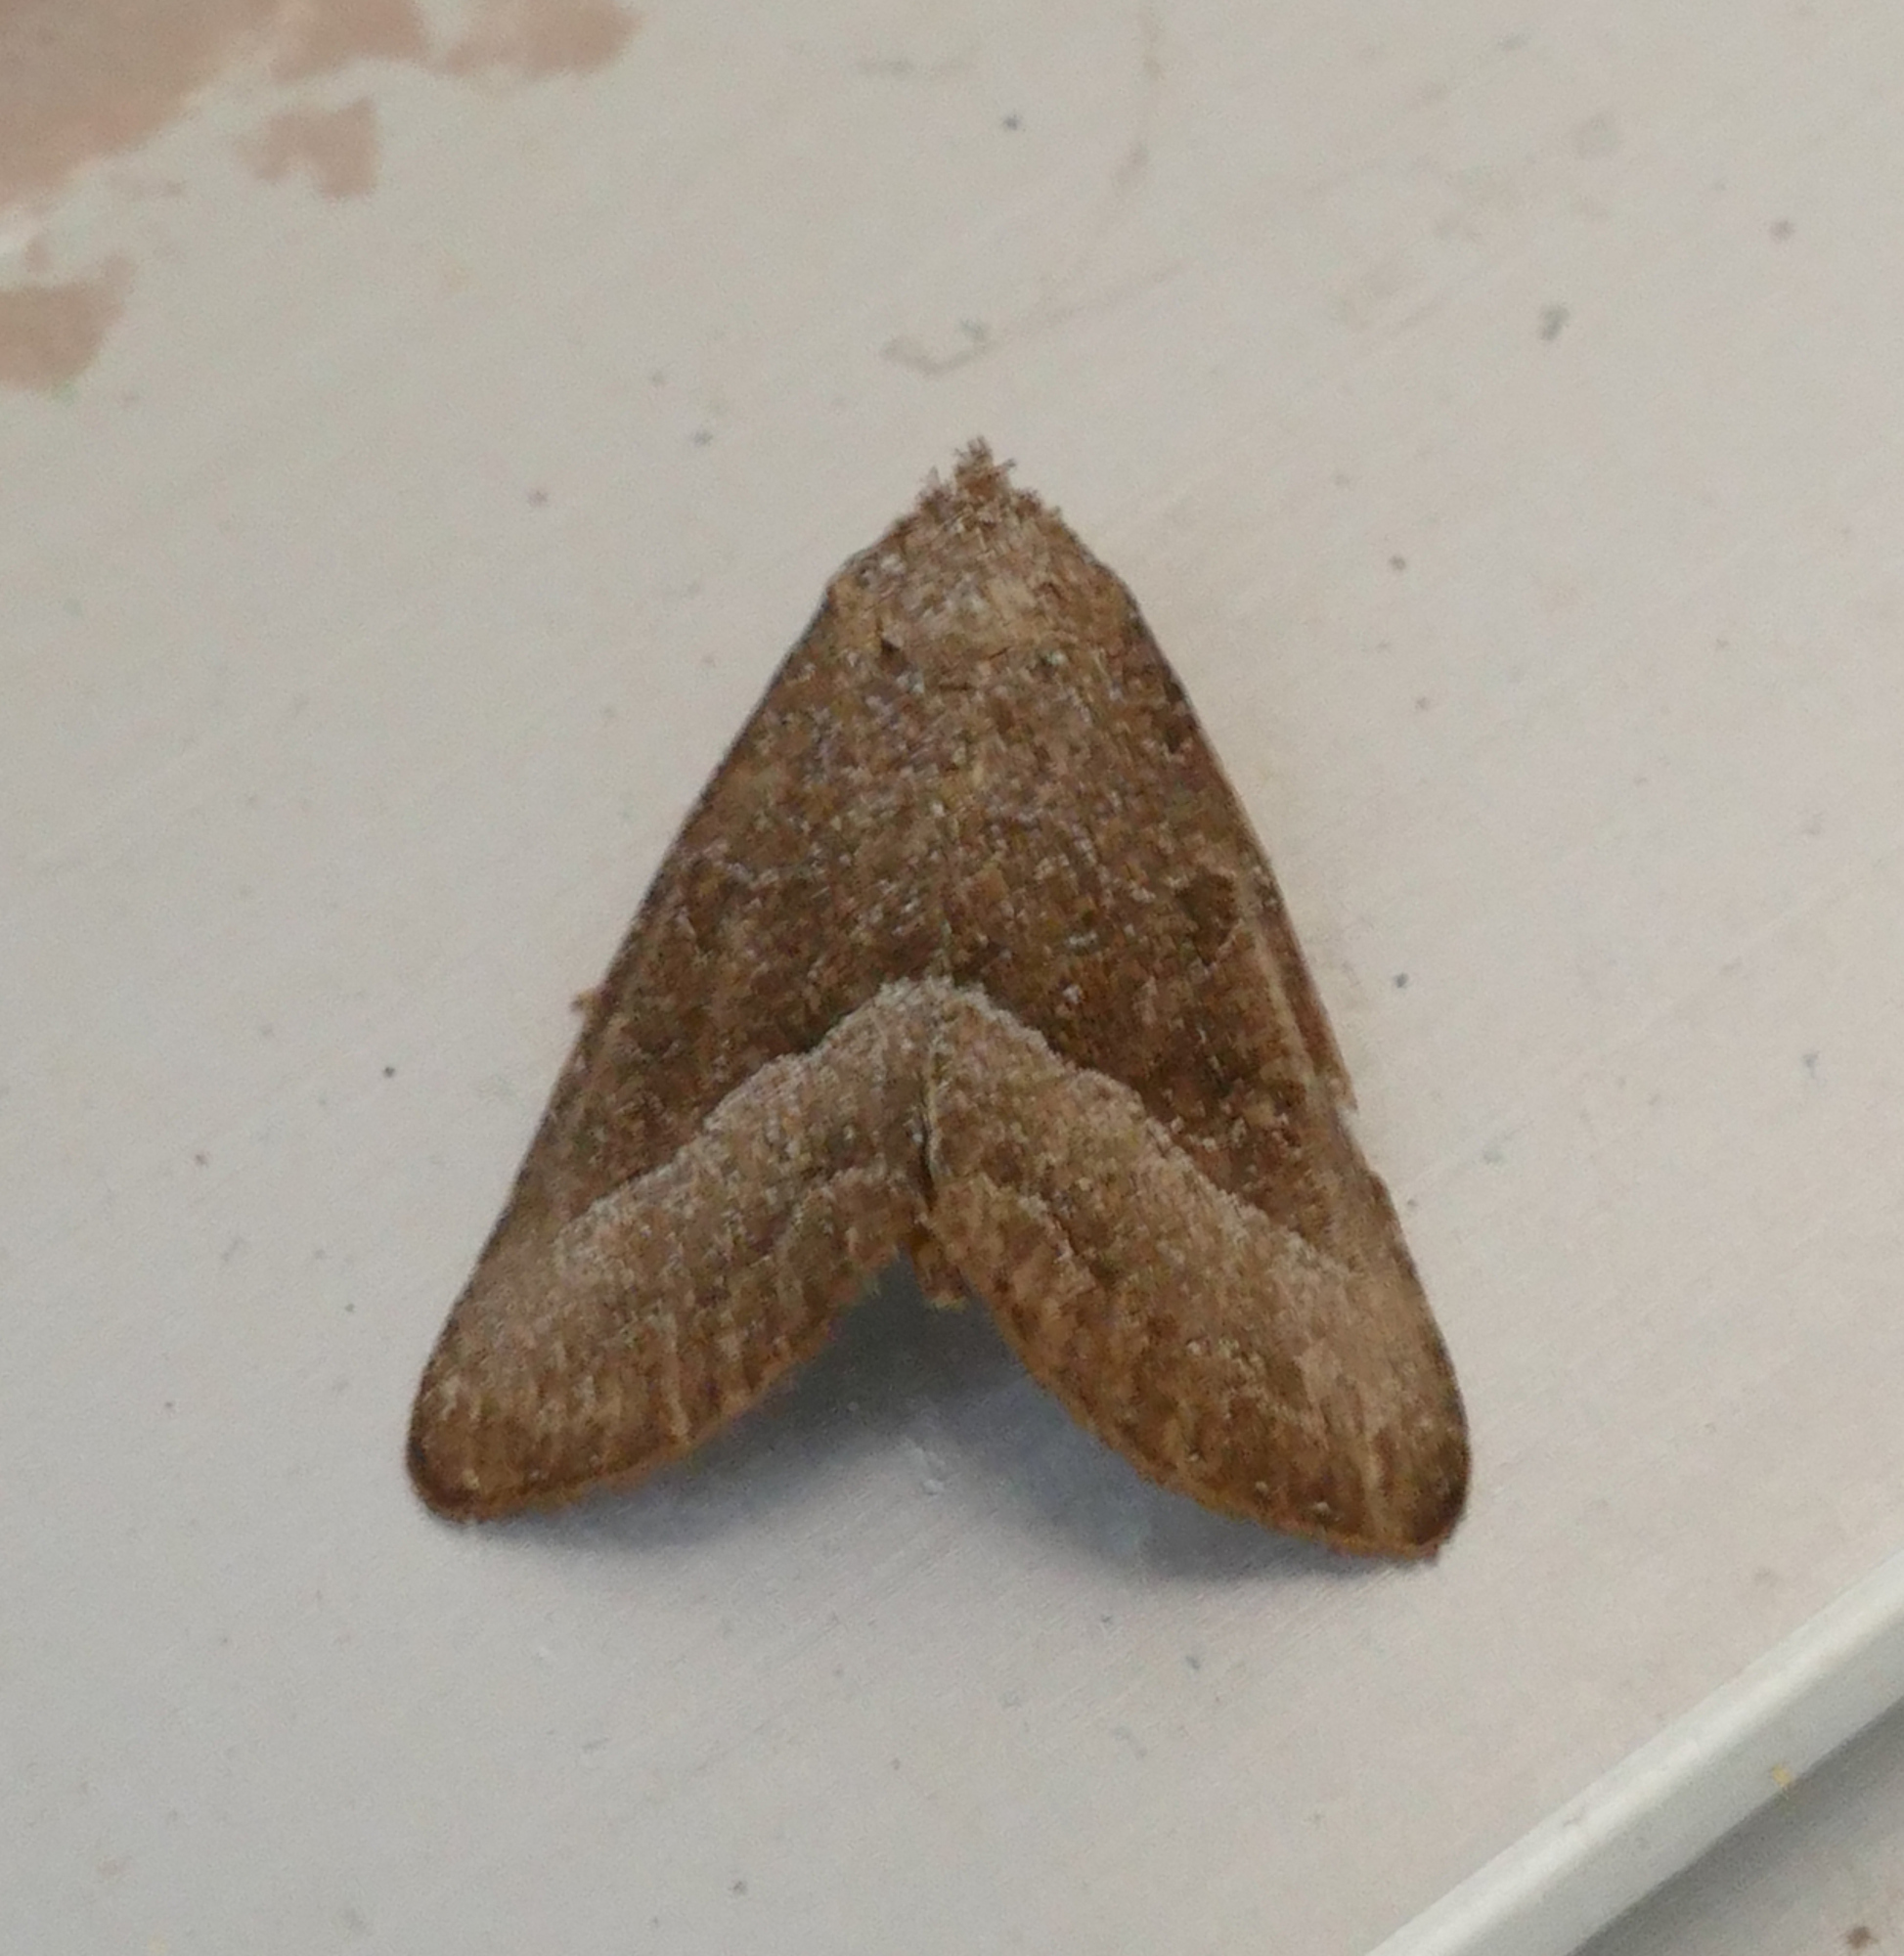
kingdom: Animalia
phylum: Arthropoda
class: Insecta
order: Lepidoptera
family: Noctuidae
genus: Ogdoconta
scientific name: Ogdoconta cinereola
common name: Common pinkband
